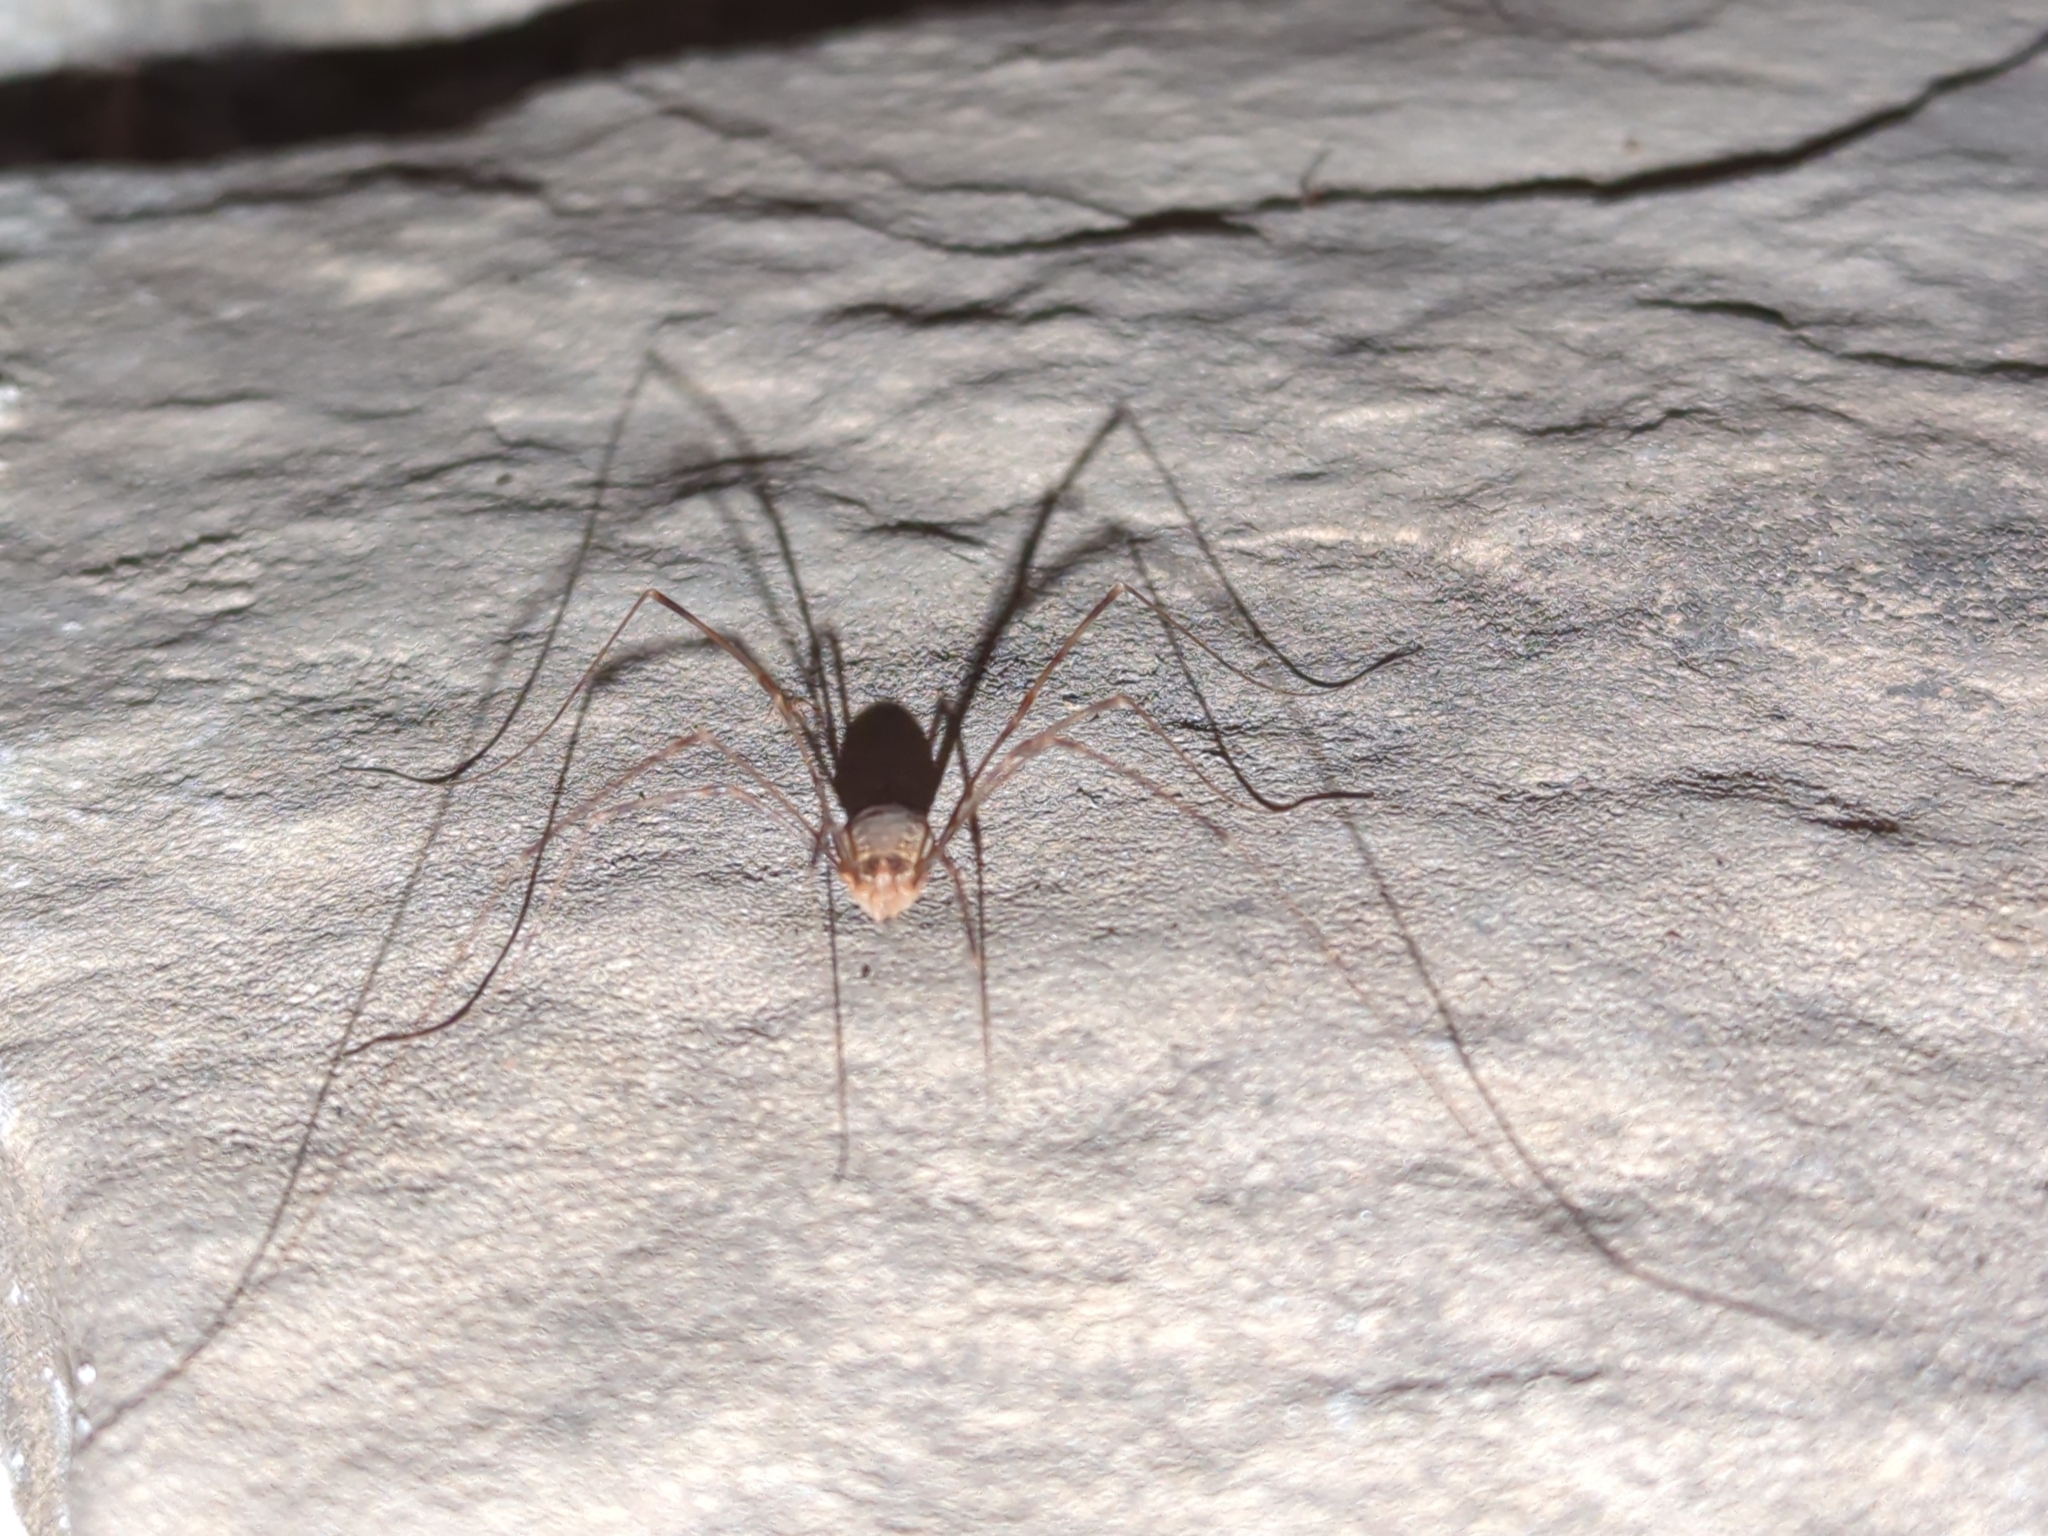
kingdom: Animalia
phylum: Arthropoda
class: Arachnida
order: Opiliones
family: Phalangiidae
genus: Opilio
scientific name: Opilio canestrinii
